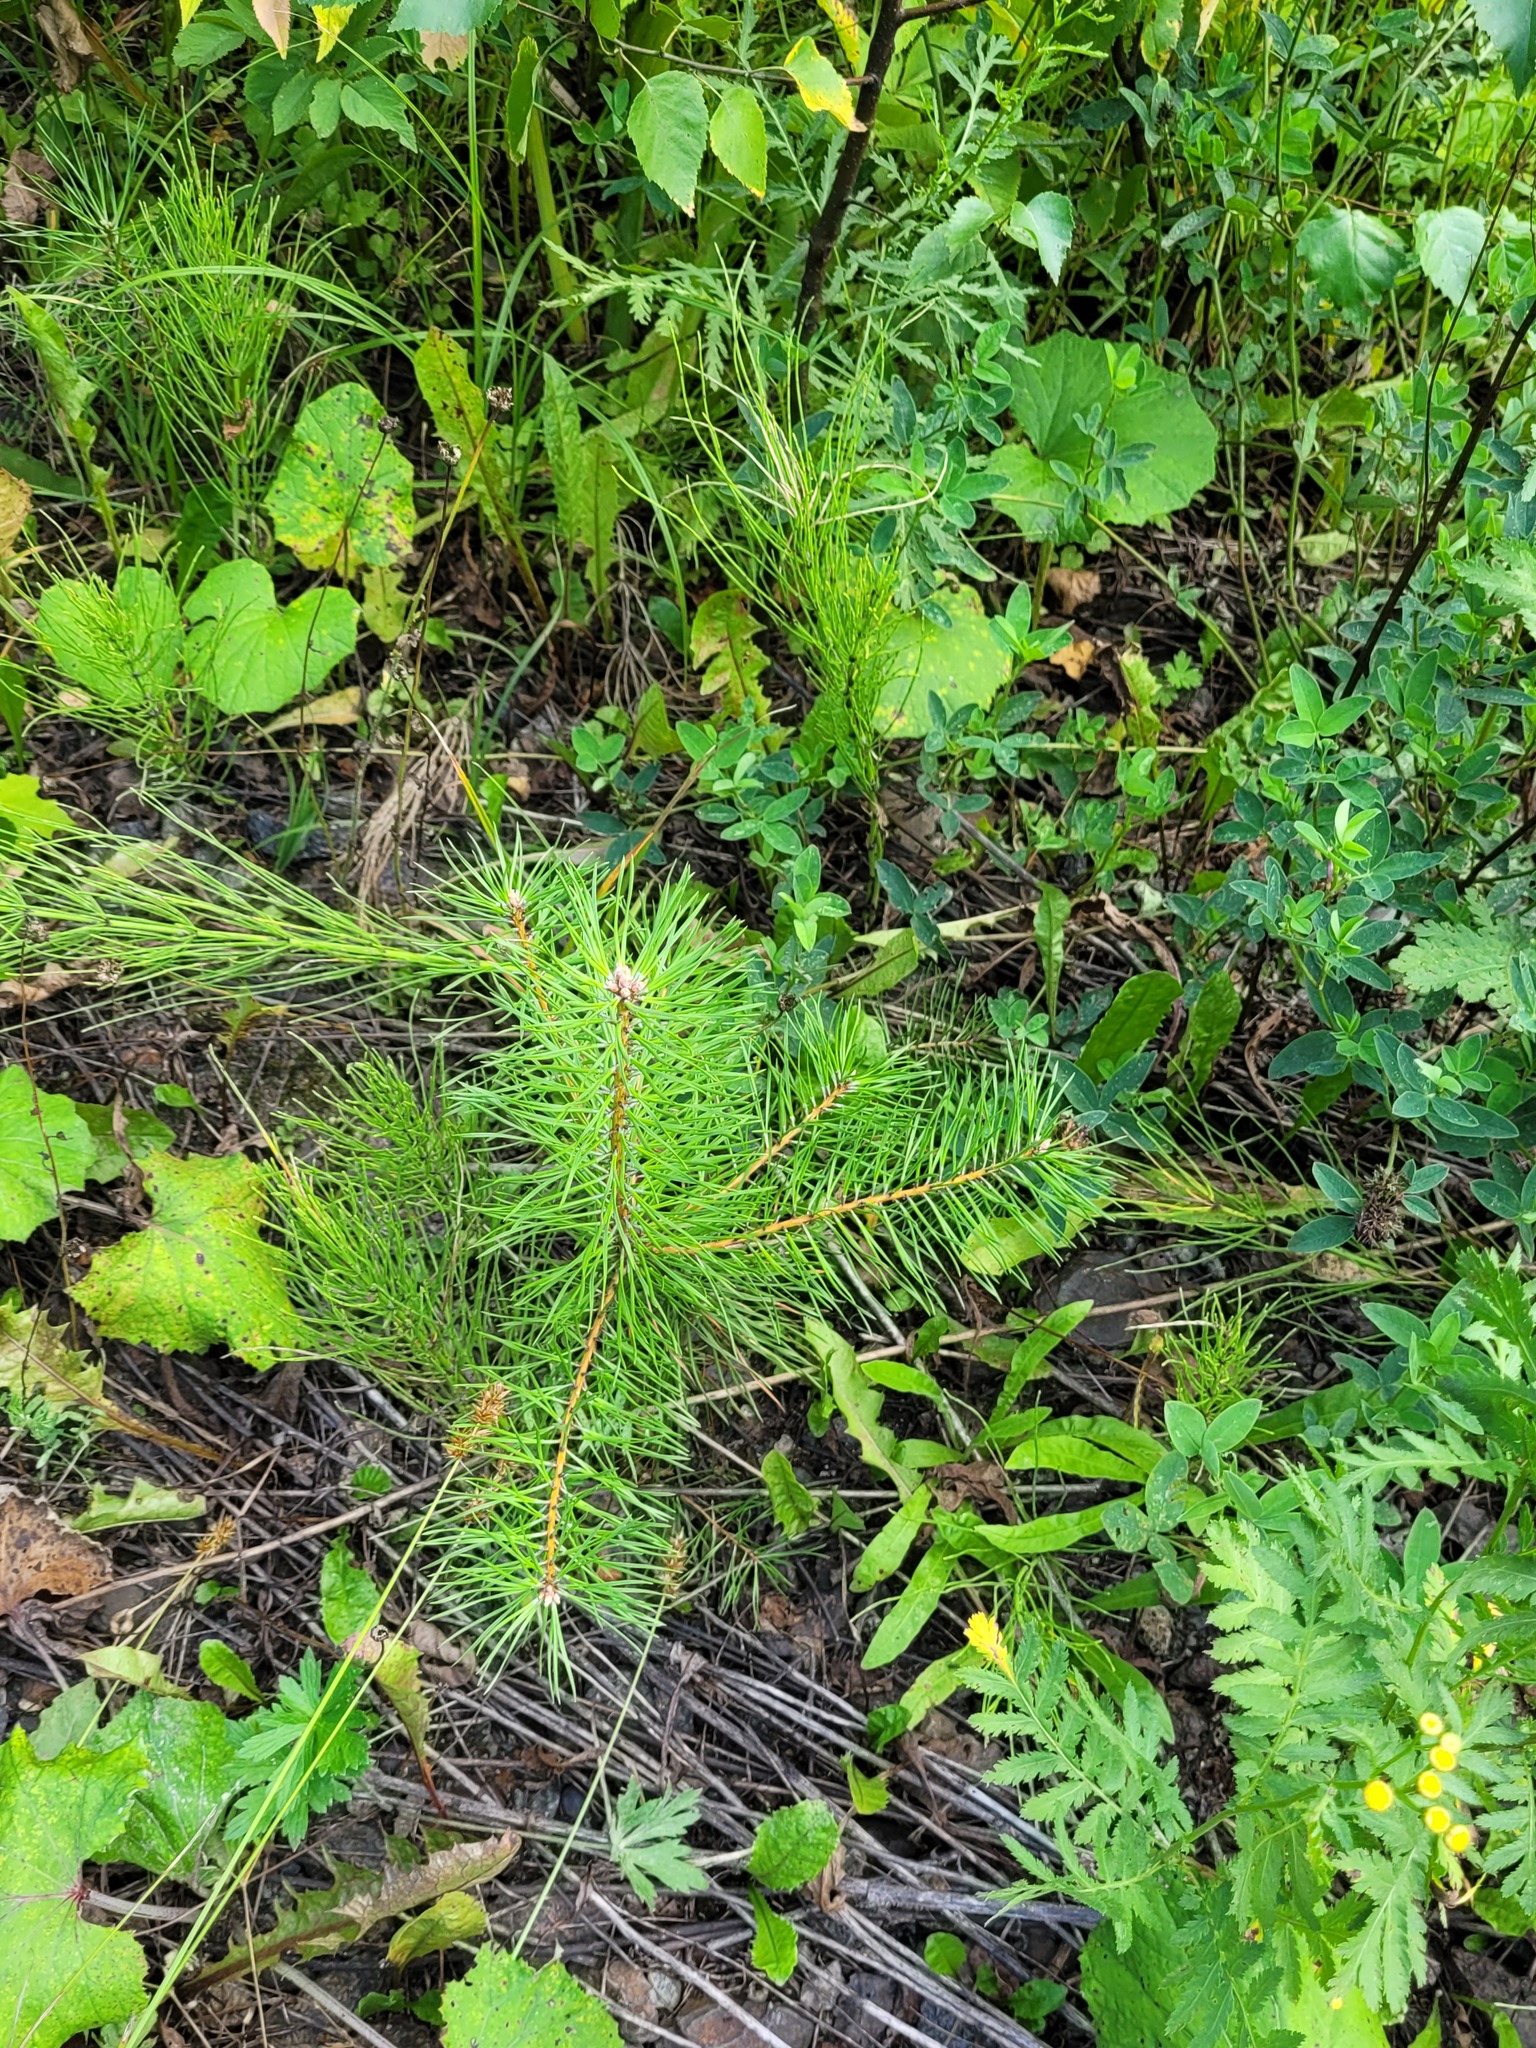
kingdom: Plantae
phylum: Tracheophyta
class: Pinopsida
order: Pinales
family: Pinaceae
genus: Pinus
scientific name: Pinus sylvestris
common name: Scots pine
